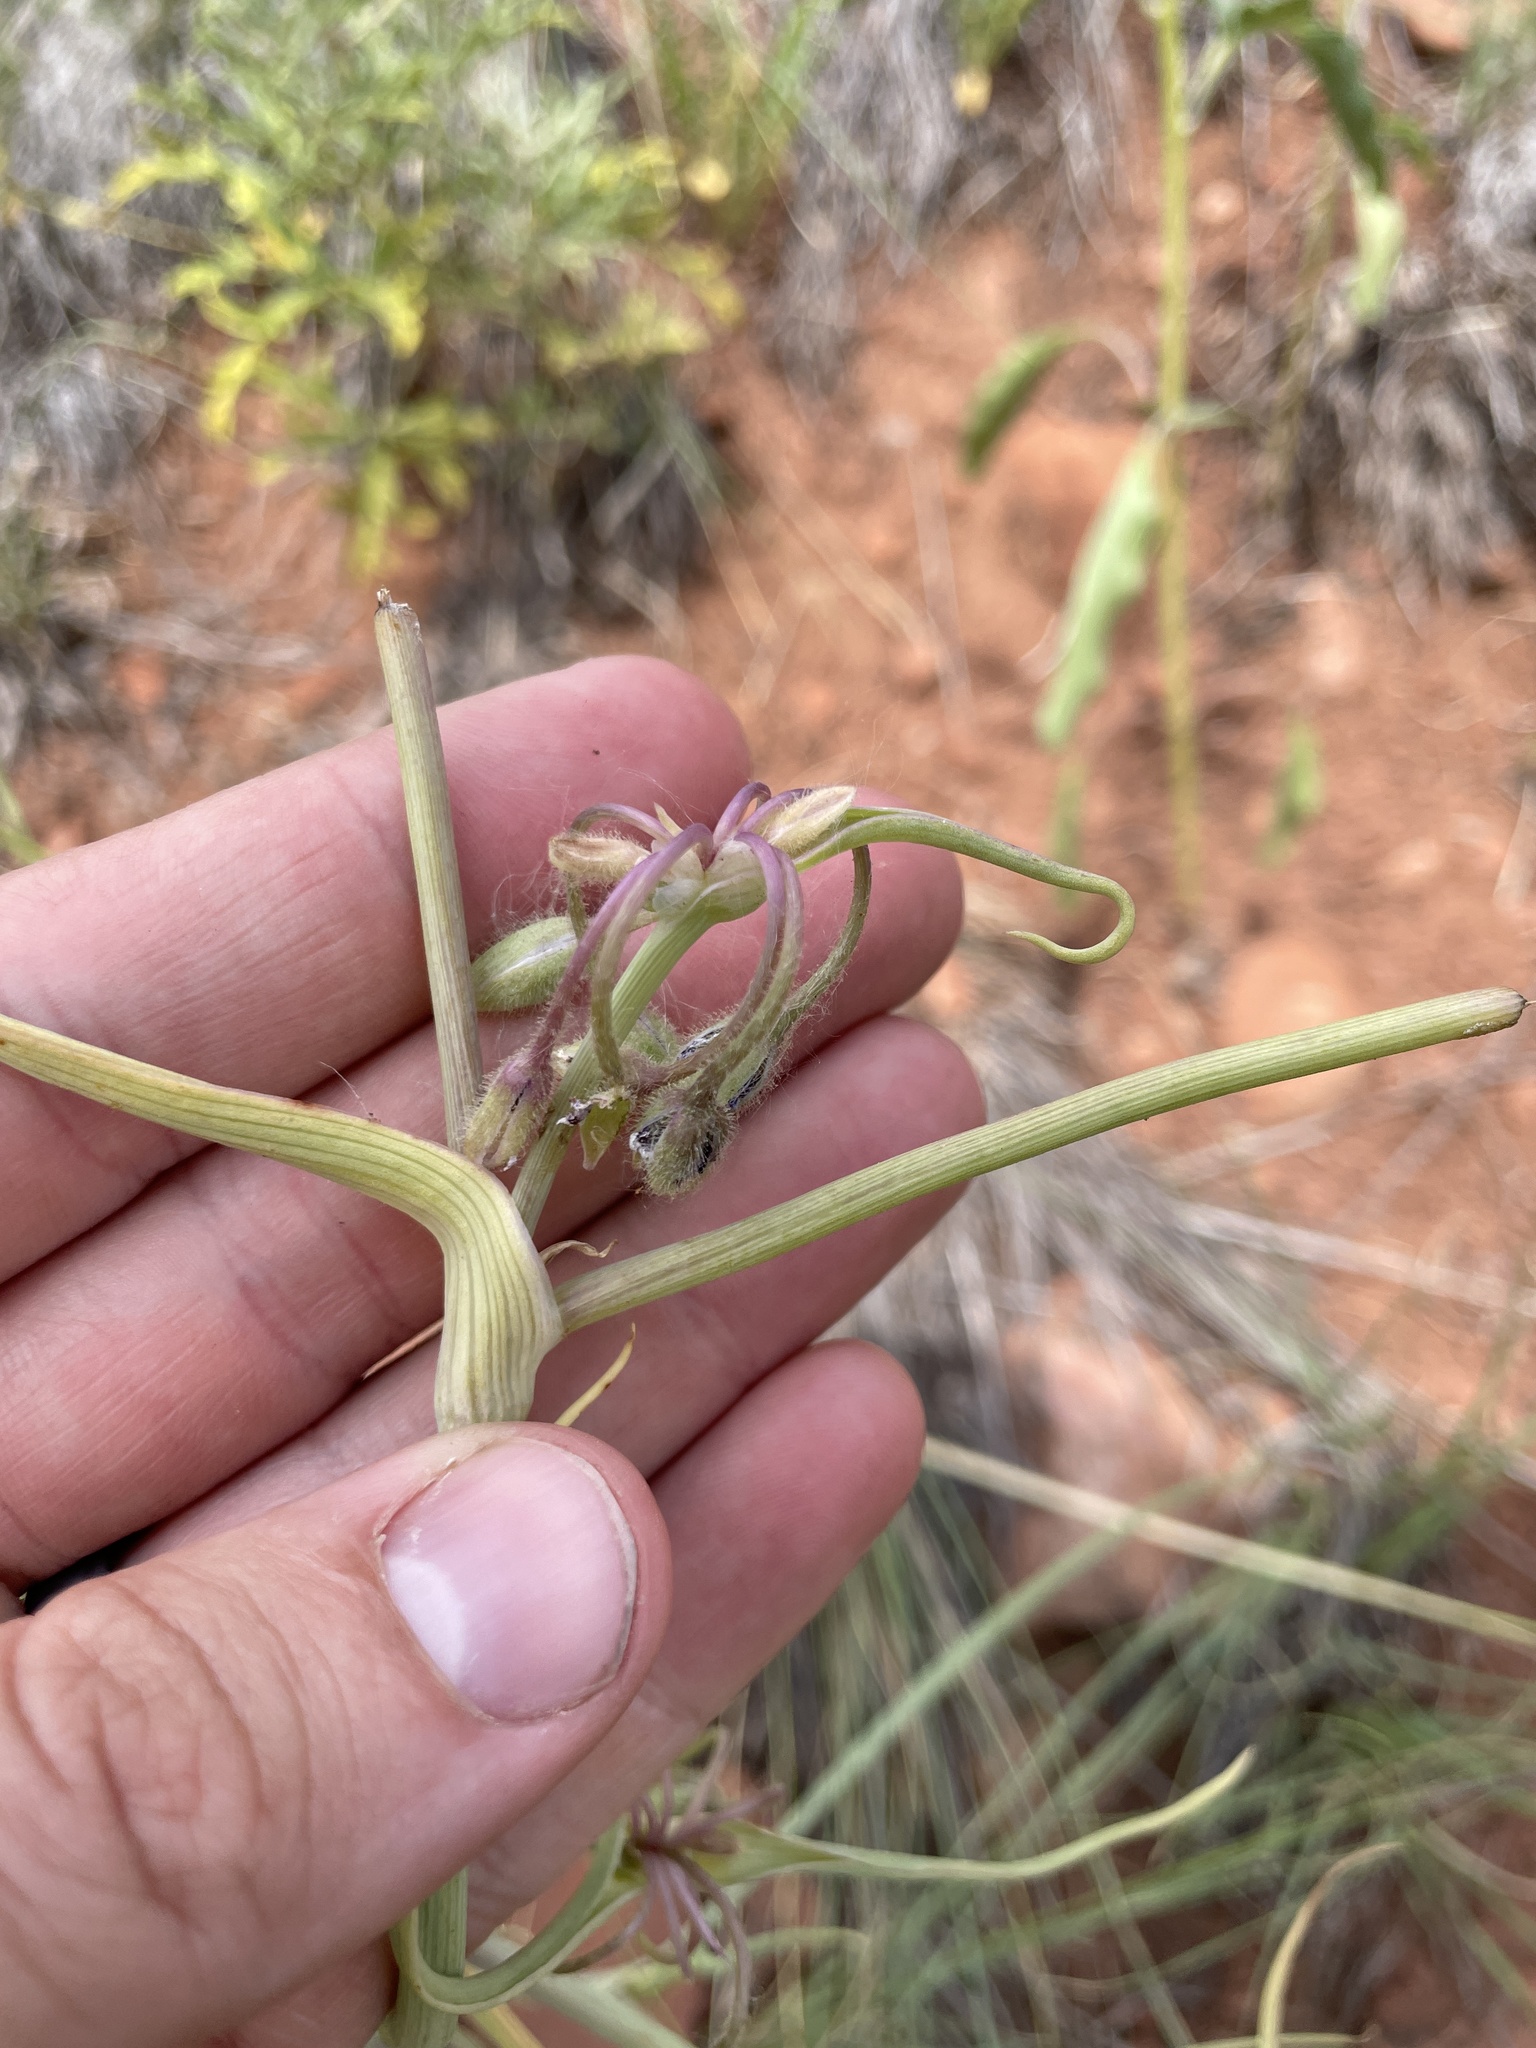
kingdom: Plantae
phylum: Tracheophyta
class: Liliopsida
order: Commelinales
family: Commelinaceae
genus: Tradescantia
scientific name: Tradescantia occidentalis
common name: Prairie spiderwort
